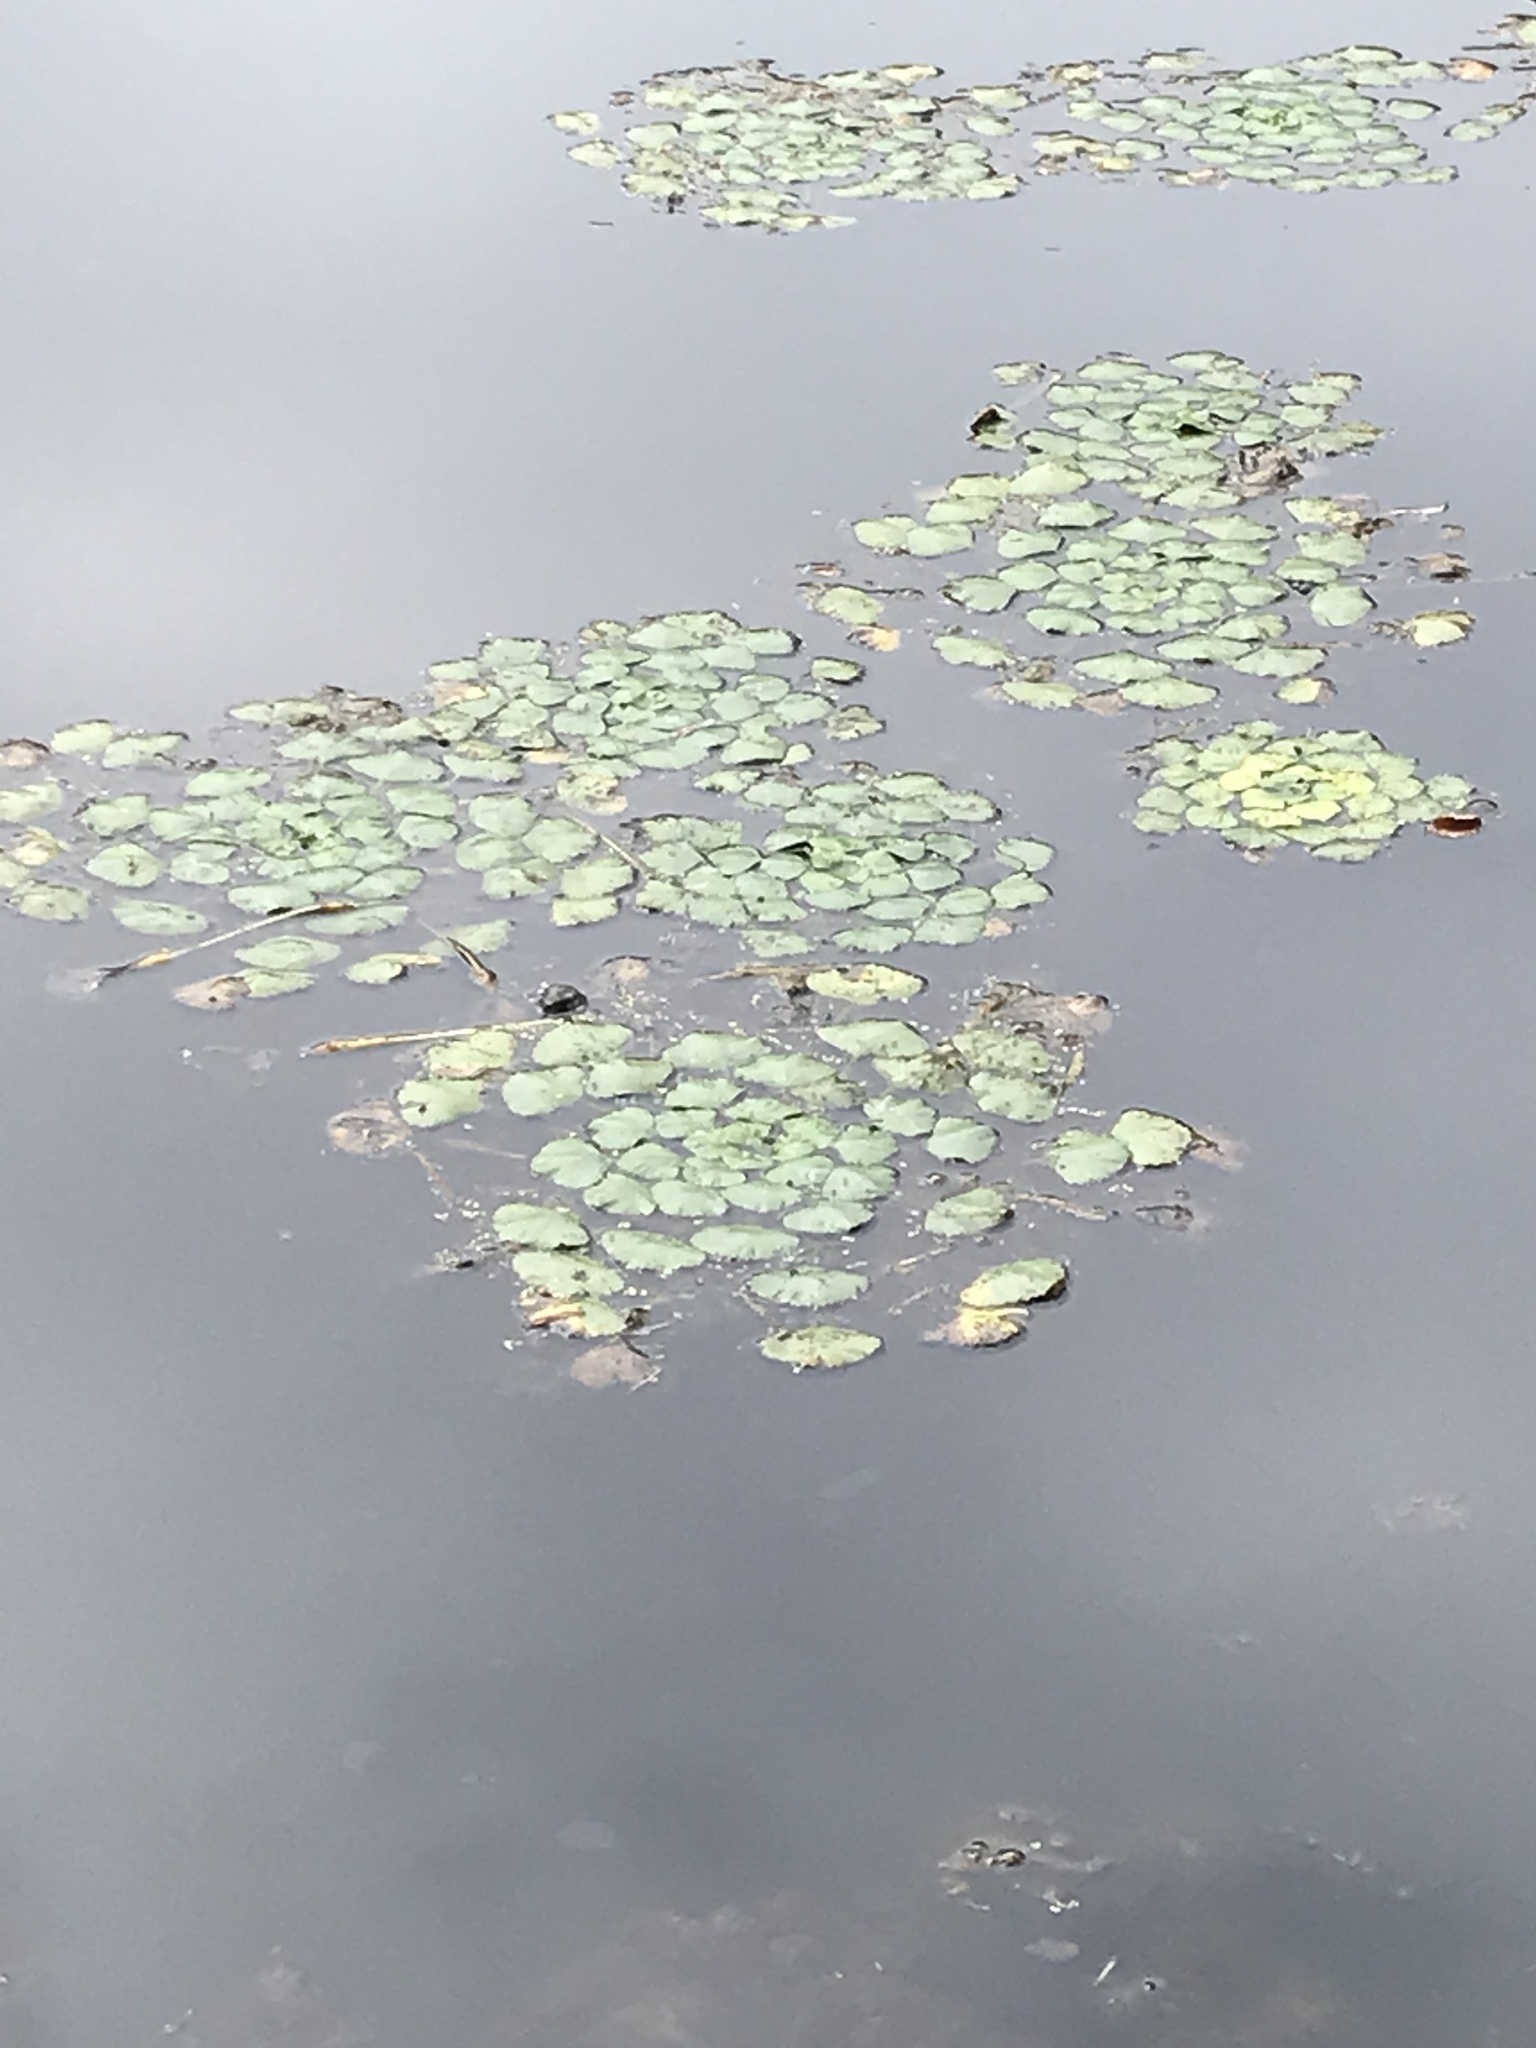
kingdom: Plantae
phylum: Tracheophyta
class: Magnoliopsida
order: Myrtales
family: Lythraceae
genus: Trapa
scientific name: Trapa natans
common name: Water chestnut
